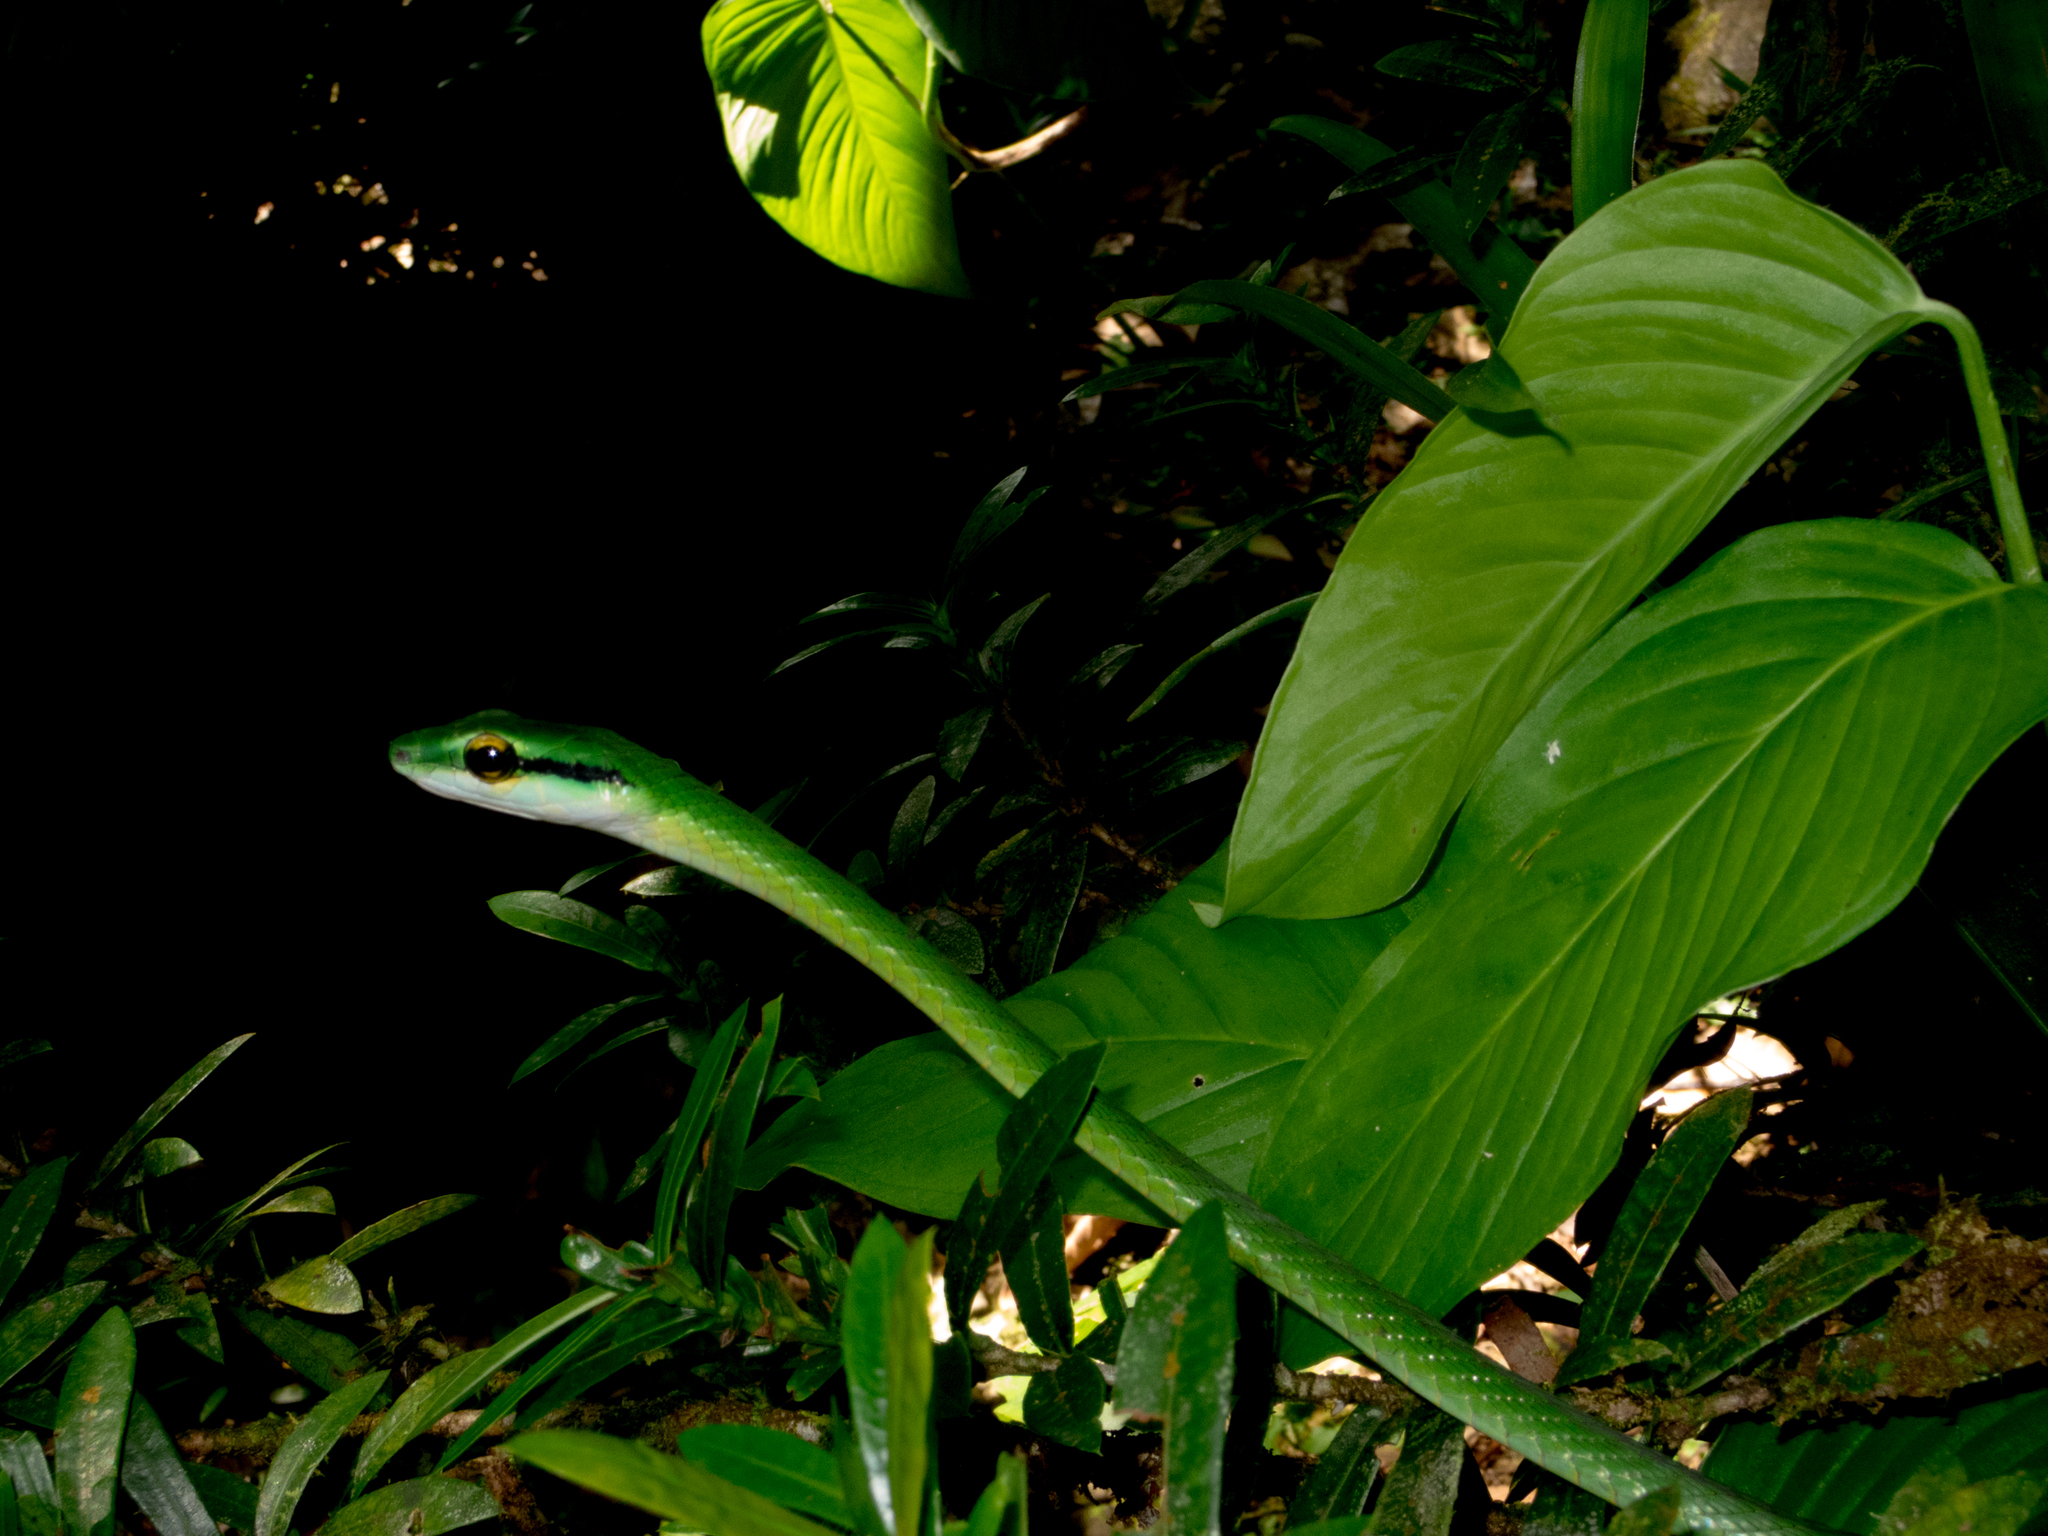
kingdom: Animalia
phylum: Chordata
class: Squamata
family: Colubridae
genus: Leptophis
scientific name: Leptophis ahaetulla
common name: Parrot snake
